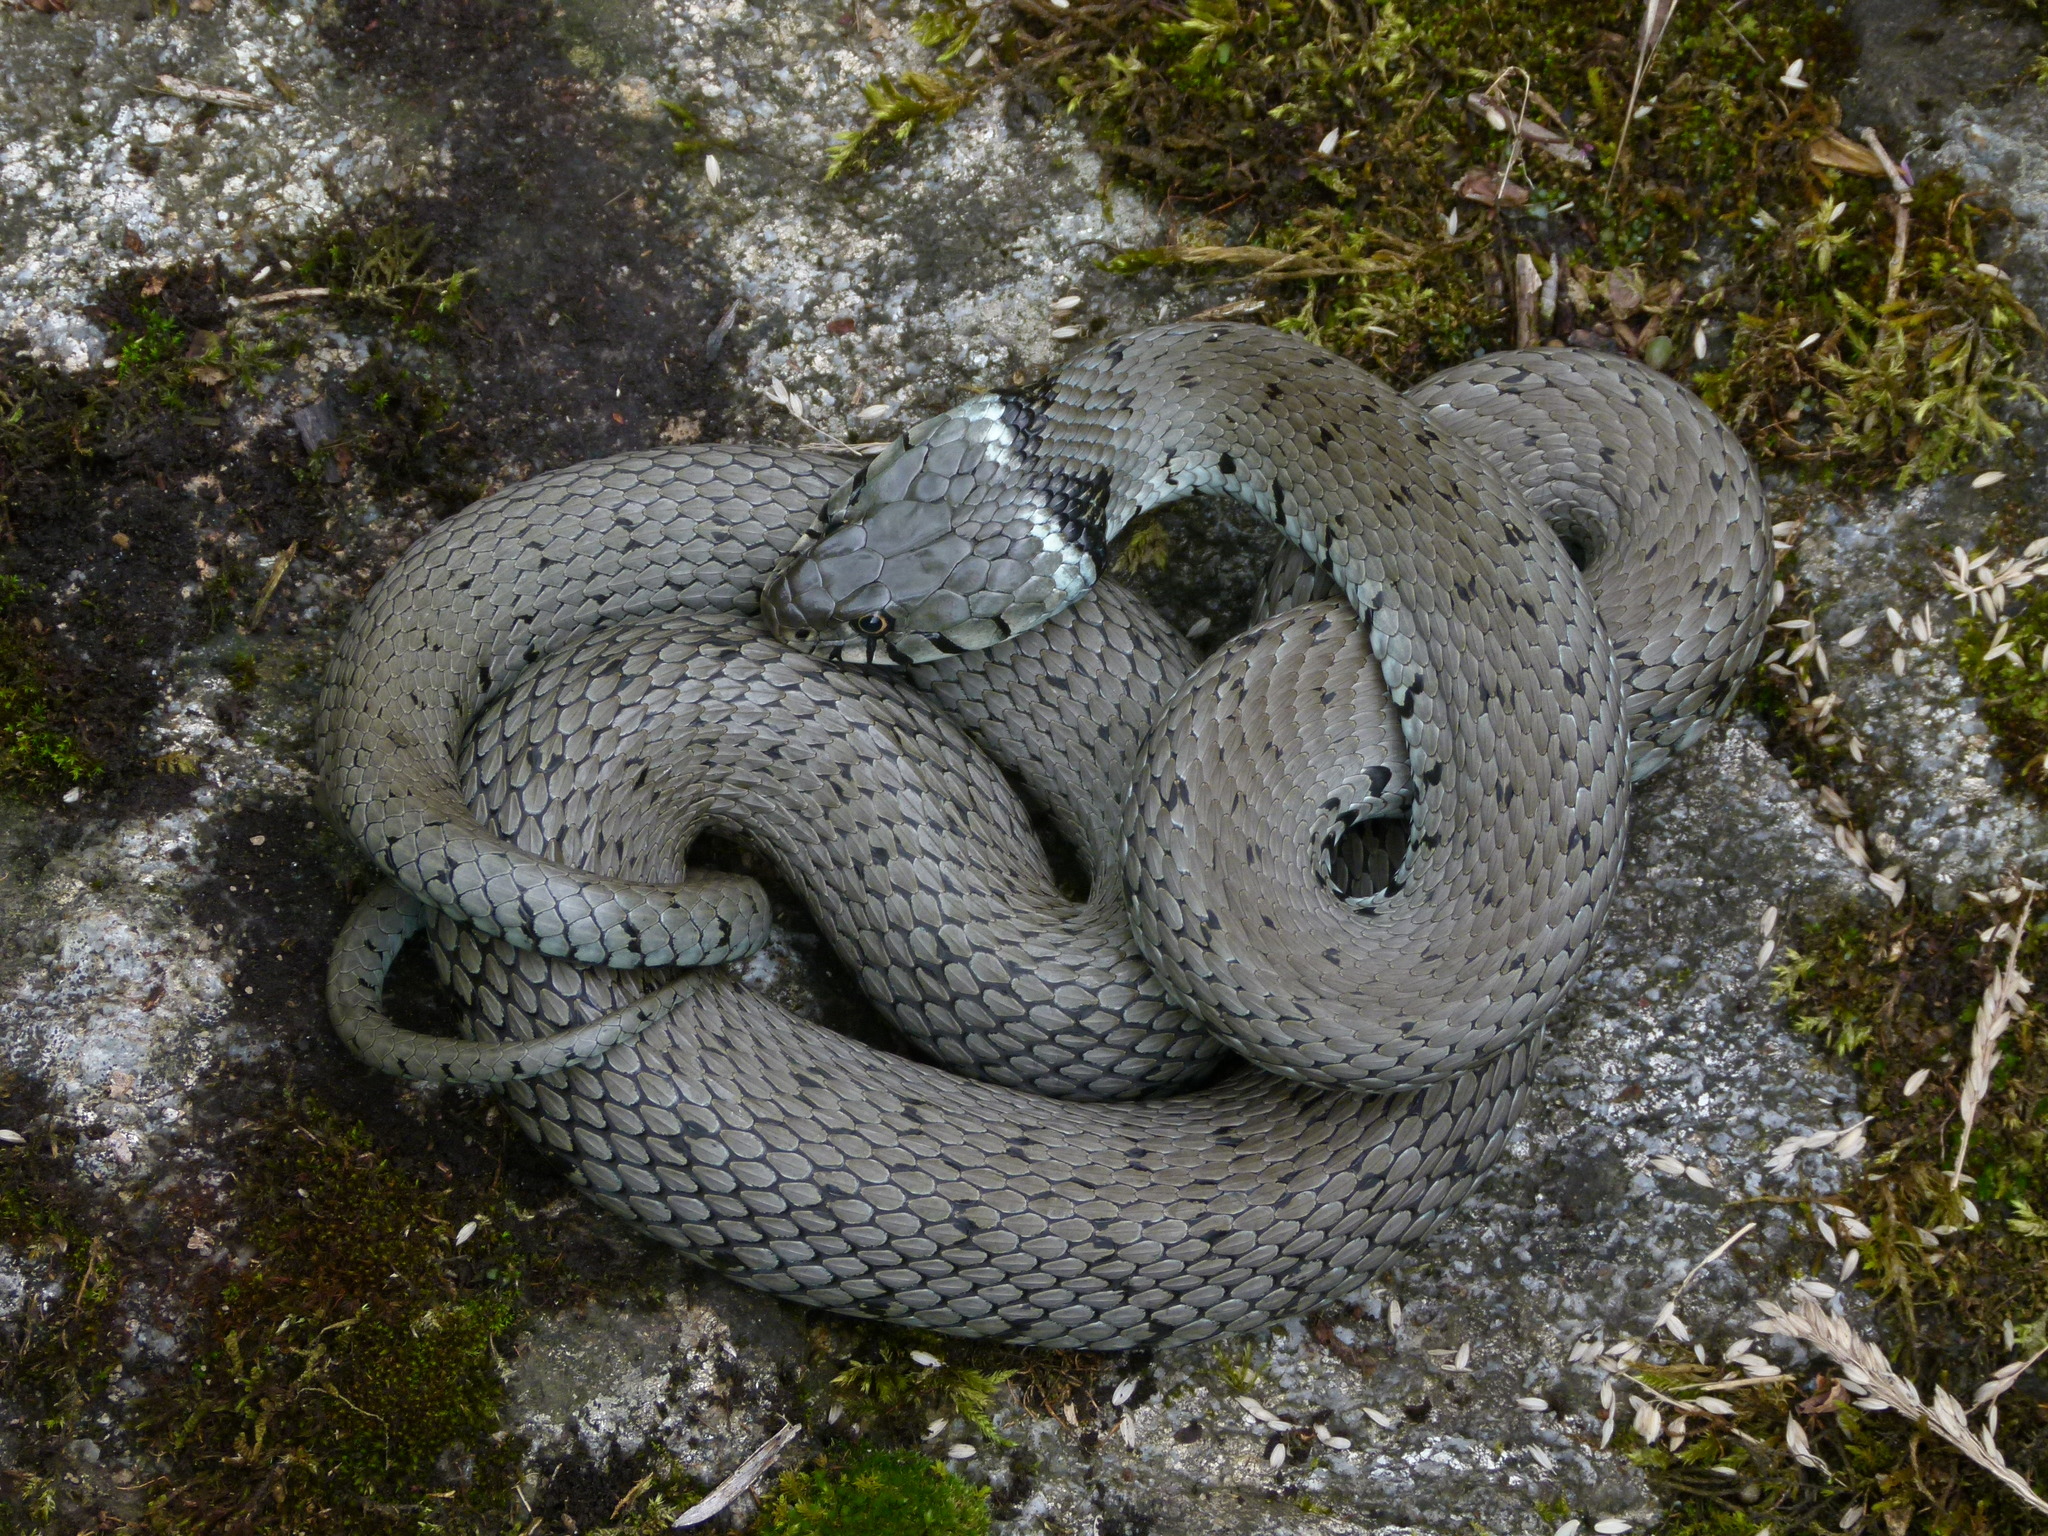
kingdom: Animalia
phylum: Chordata
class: Squamata
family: Colubridae
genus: Natrix
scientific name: Natrix helvetica
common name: Banded grass snake
